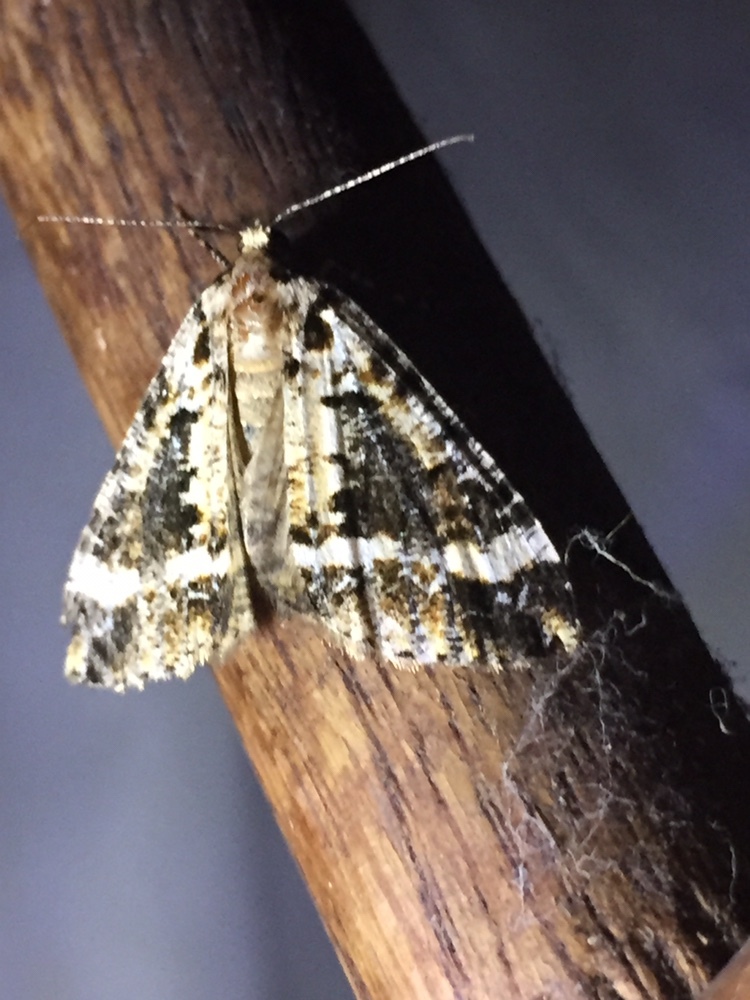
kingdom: Animalia
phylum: Arthropoda
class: Insecta
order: Lepidoptera
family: Geometridae
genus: Pseudocoremia
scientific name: Pseudocoremia leucelaea
